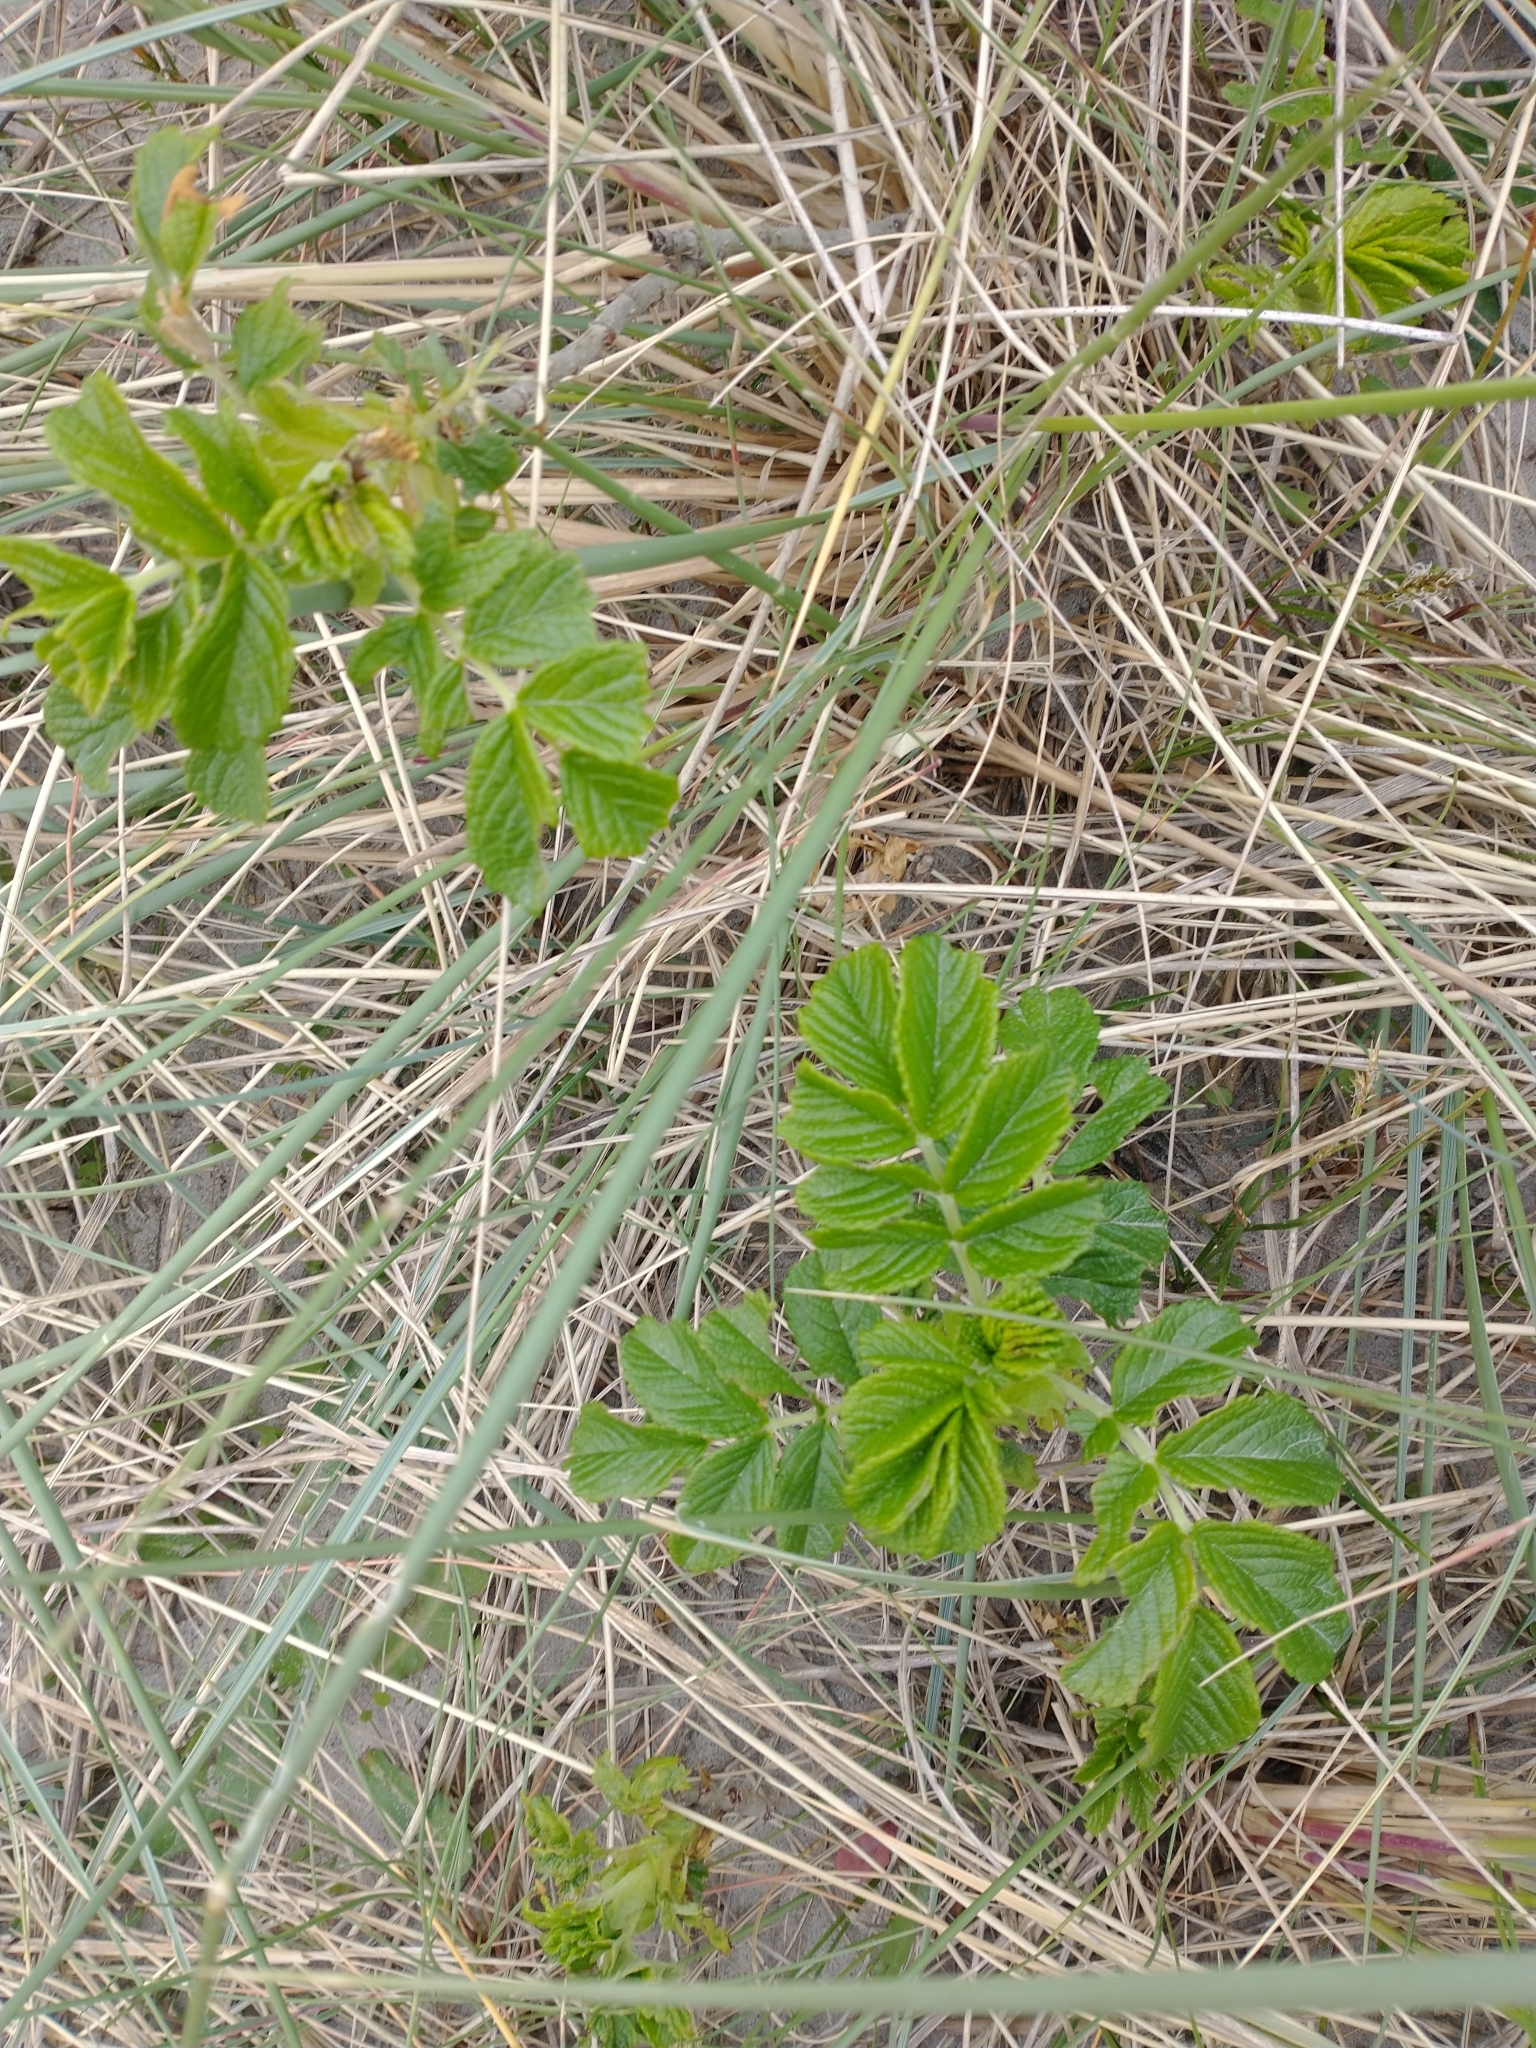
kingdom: Plantae
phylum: Tracheophyta
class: Magnoliopsida
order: Rosales
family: Rosaceae
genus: Rosa
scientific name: Rosa rugosa
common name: Japanese rose
